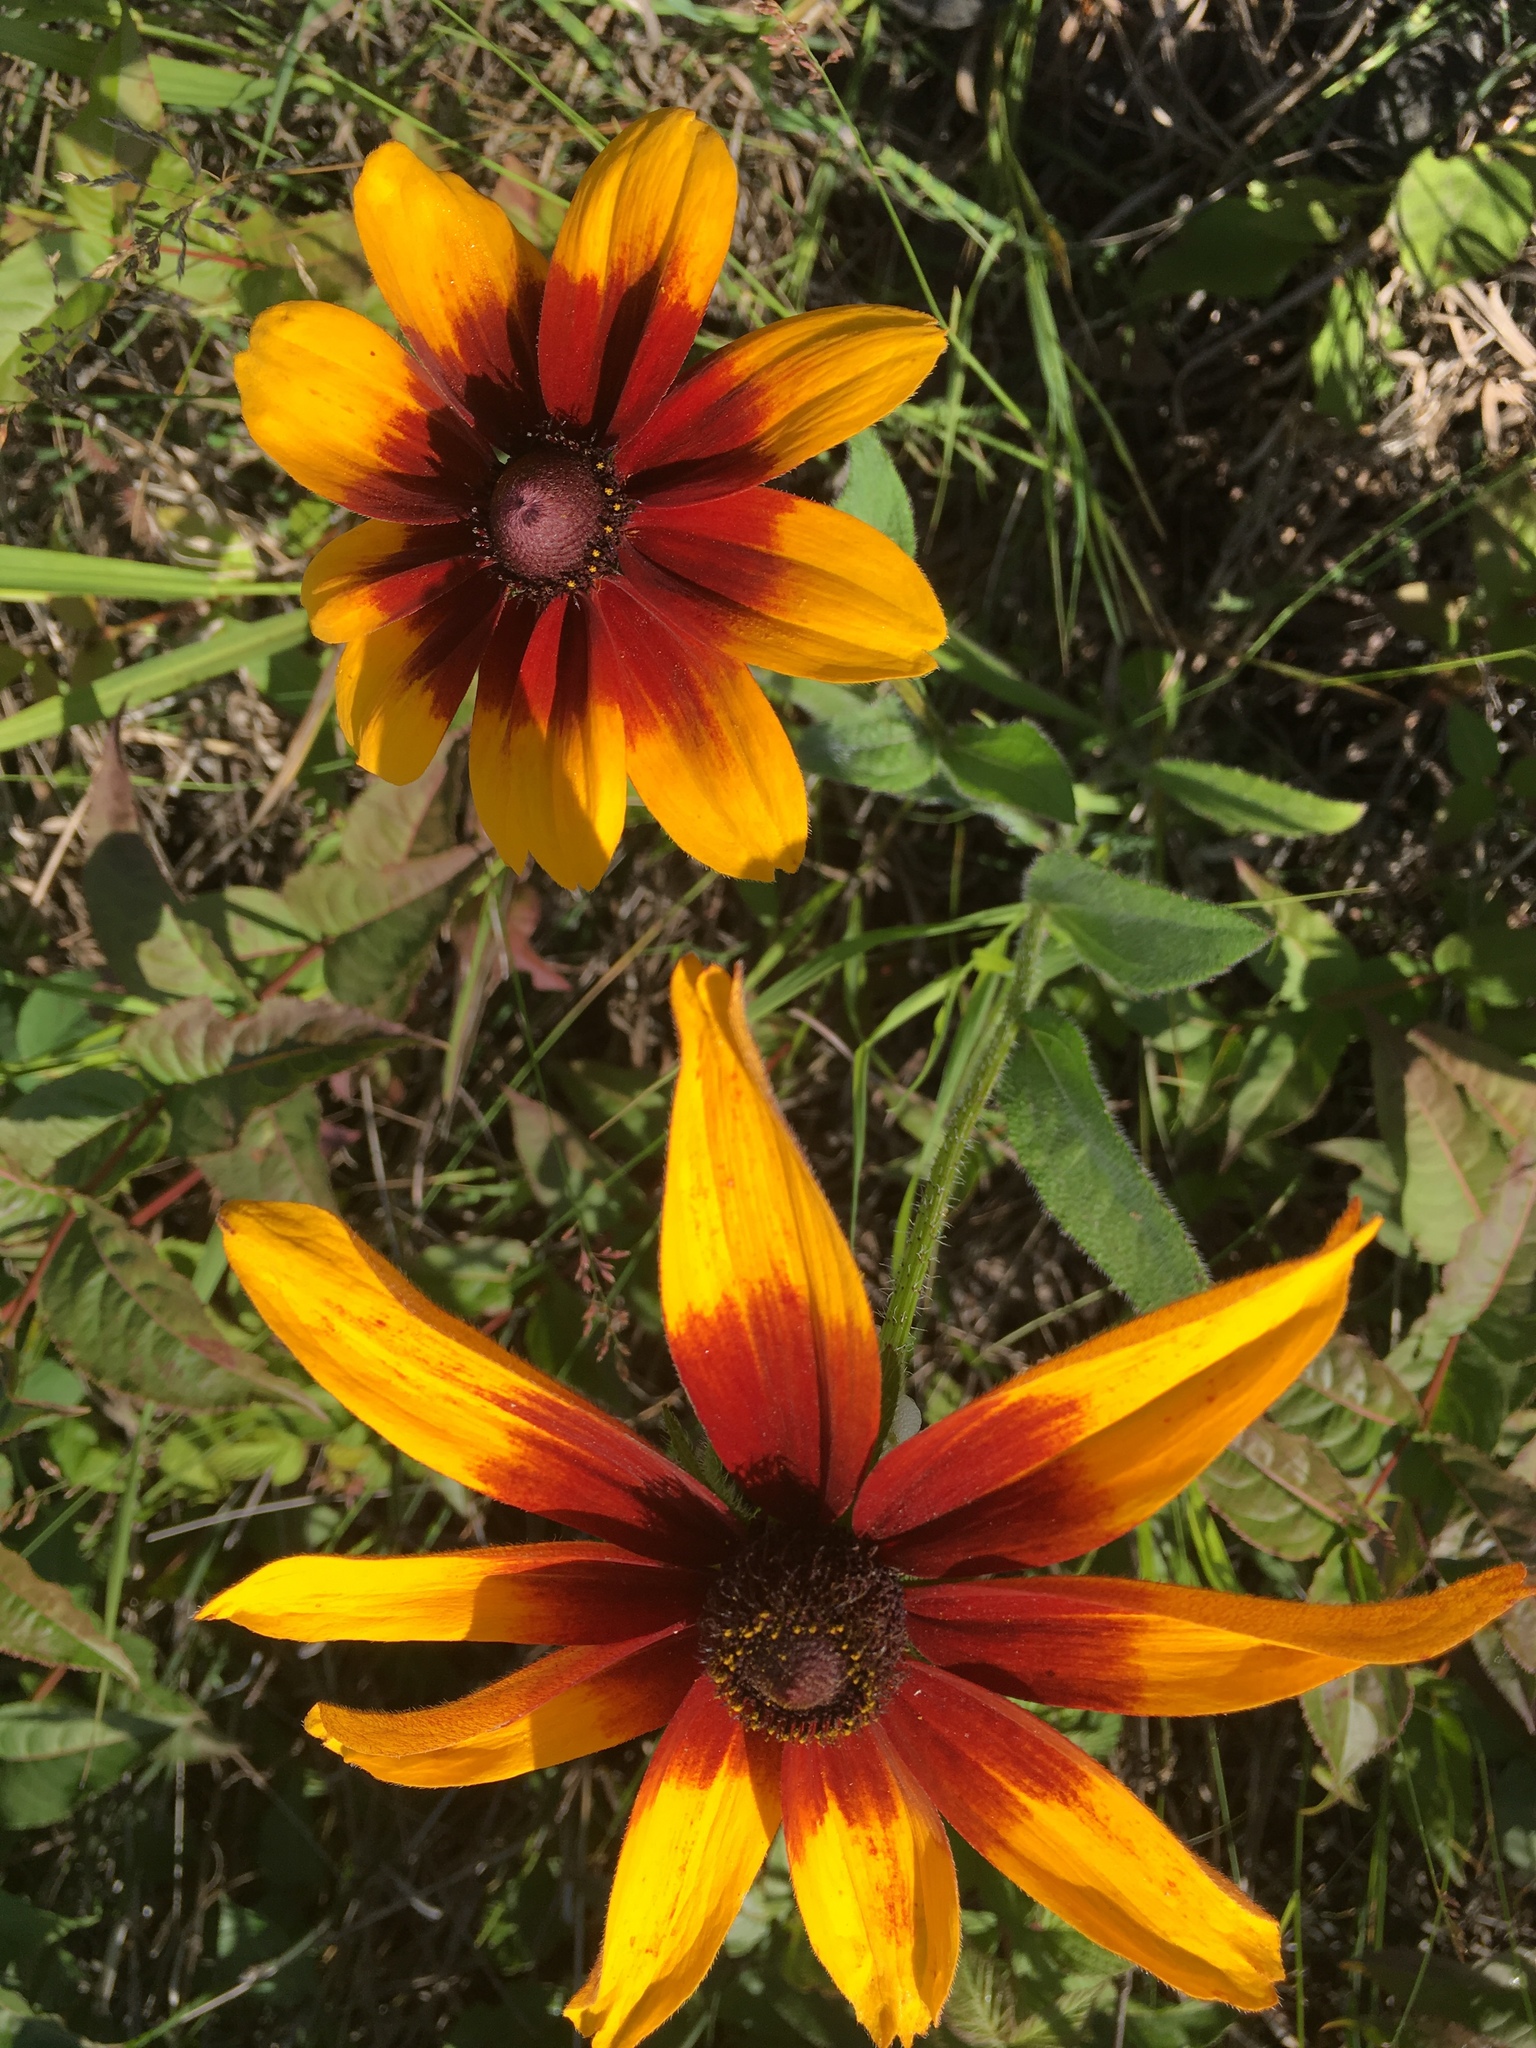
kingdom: Plantae
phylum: Tracheophyta
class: Magnoliopsida
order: Asterales
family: Asteraceae
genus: Rudbeckia
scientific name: Rudbeckia hirta
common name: Black-eyed-susan
